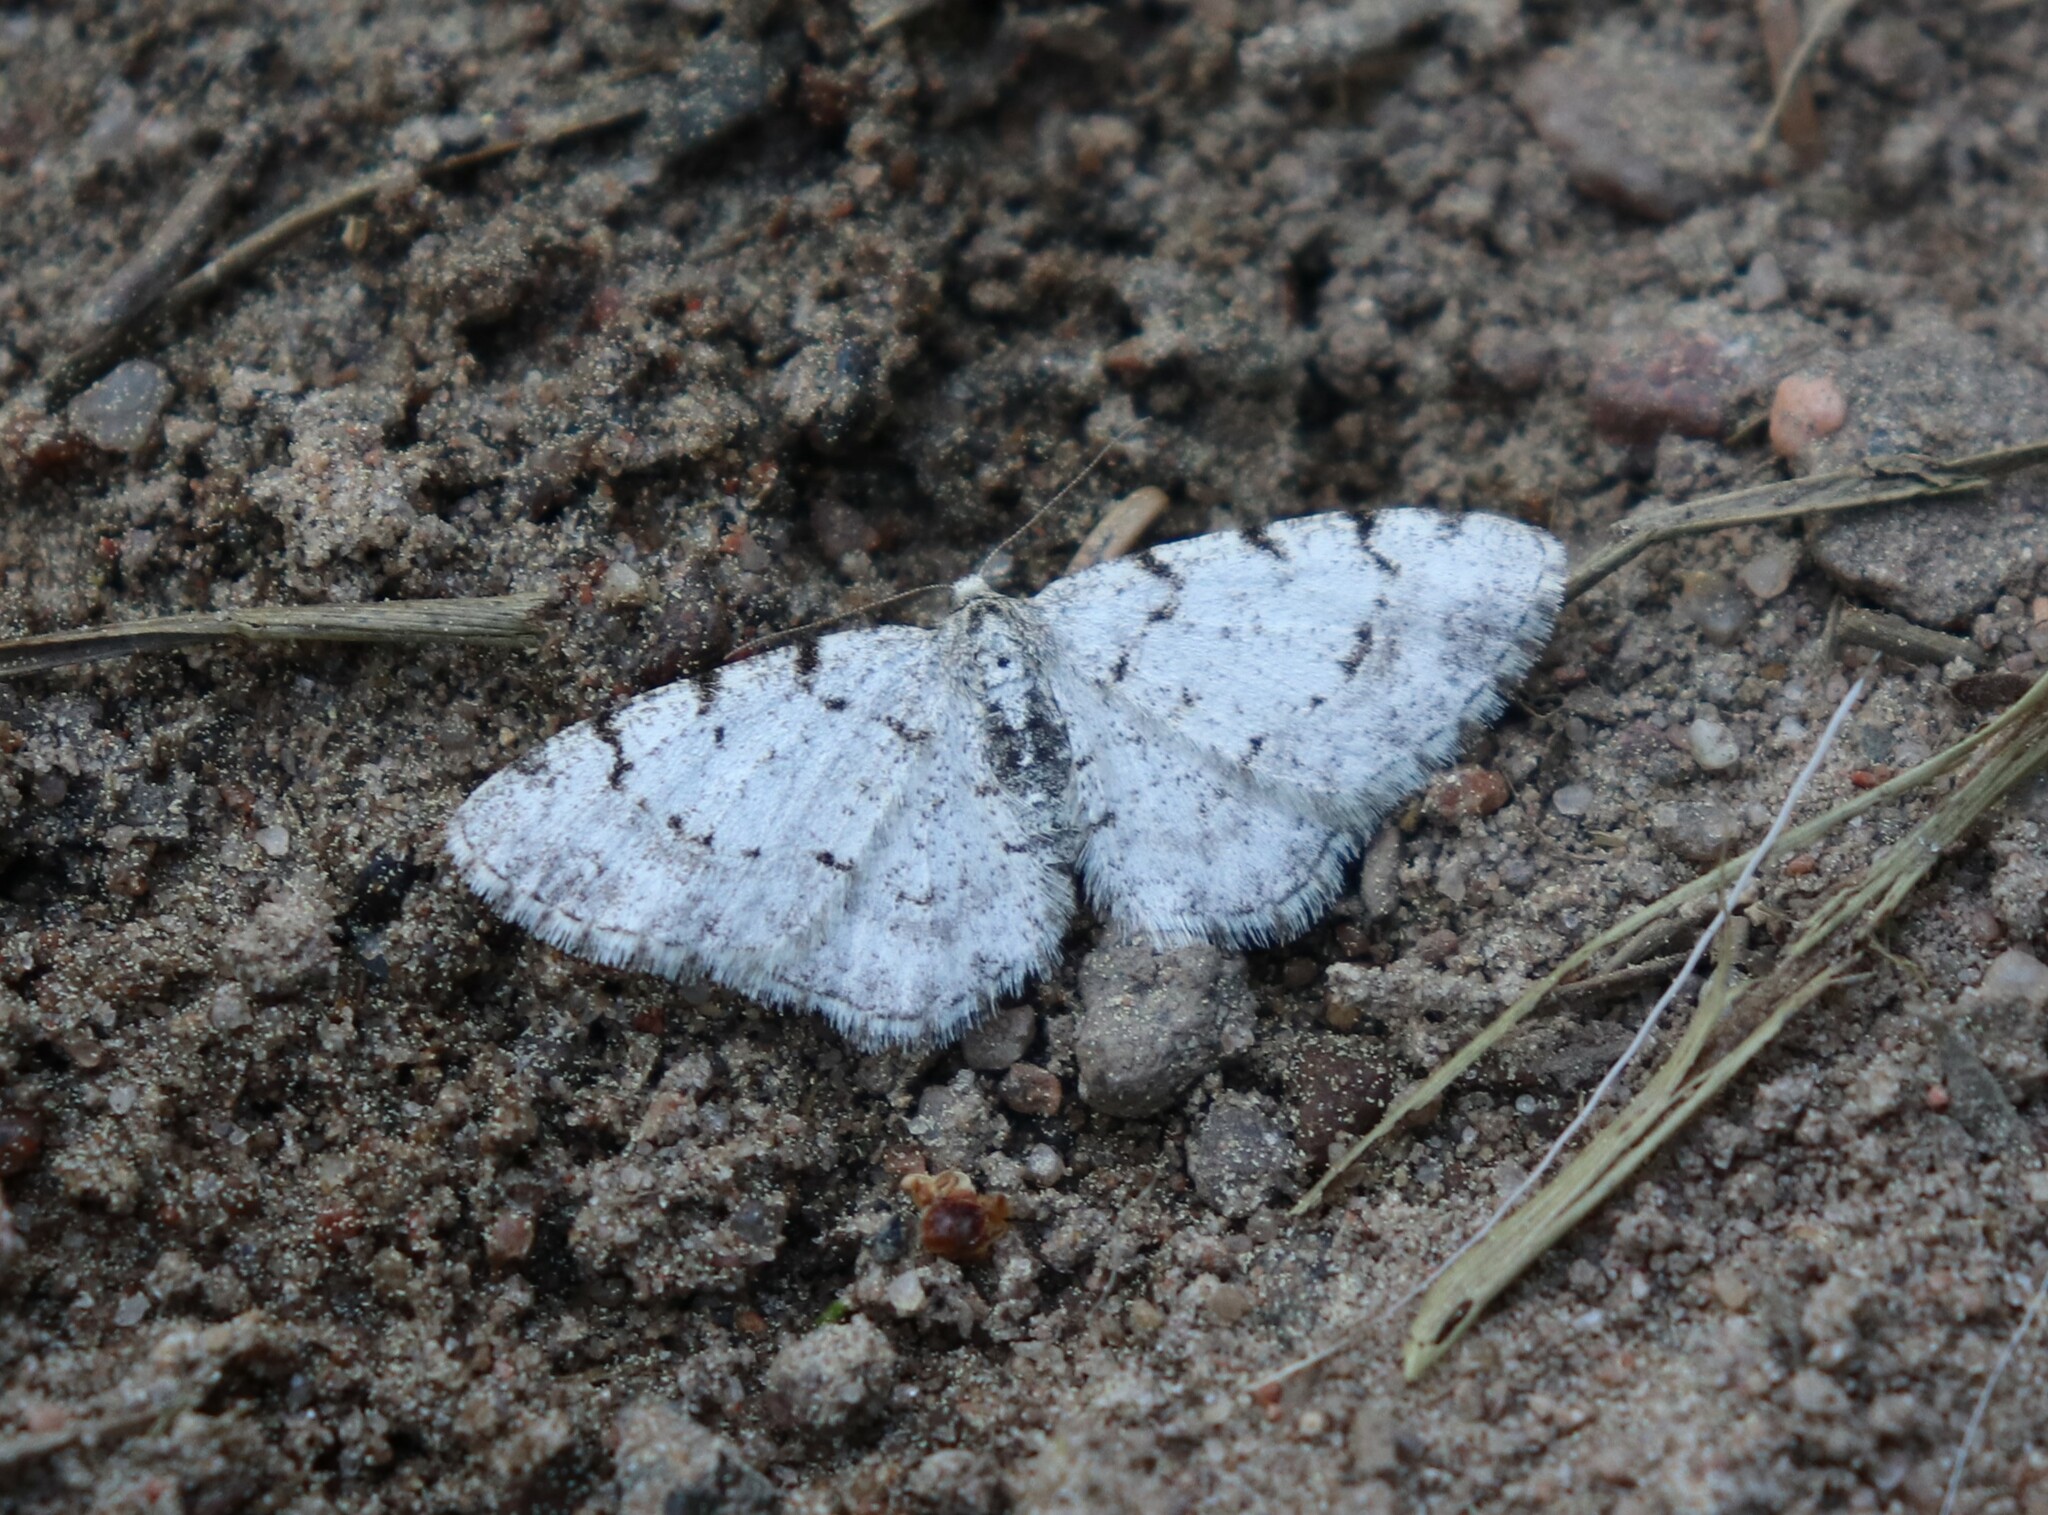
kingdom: Animalia
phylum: Arthropoda
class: Insecta
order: Lepidoptera
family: Geometridae
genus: Aethalura
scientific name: Aethalura punctulata
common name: Grey birch
